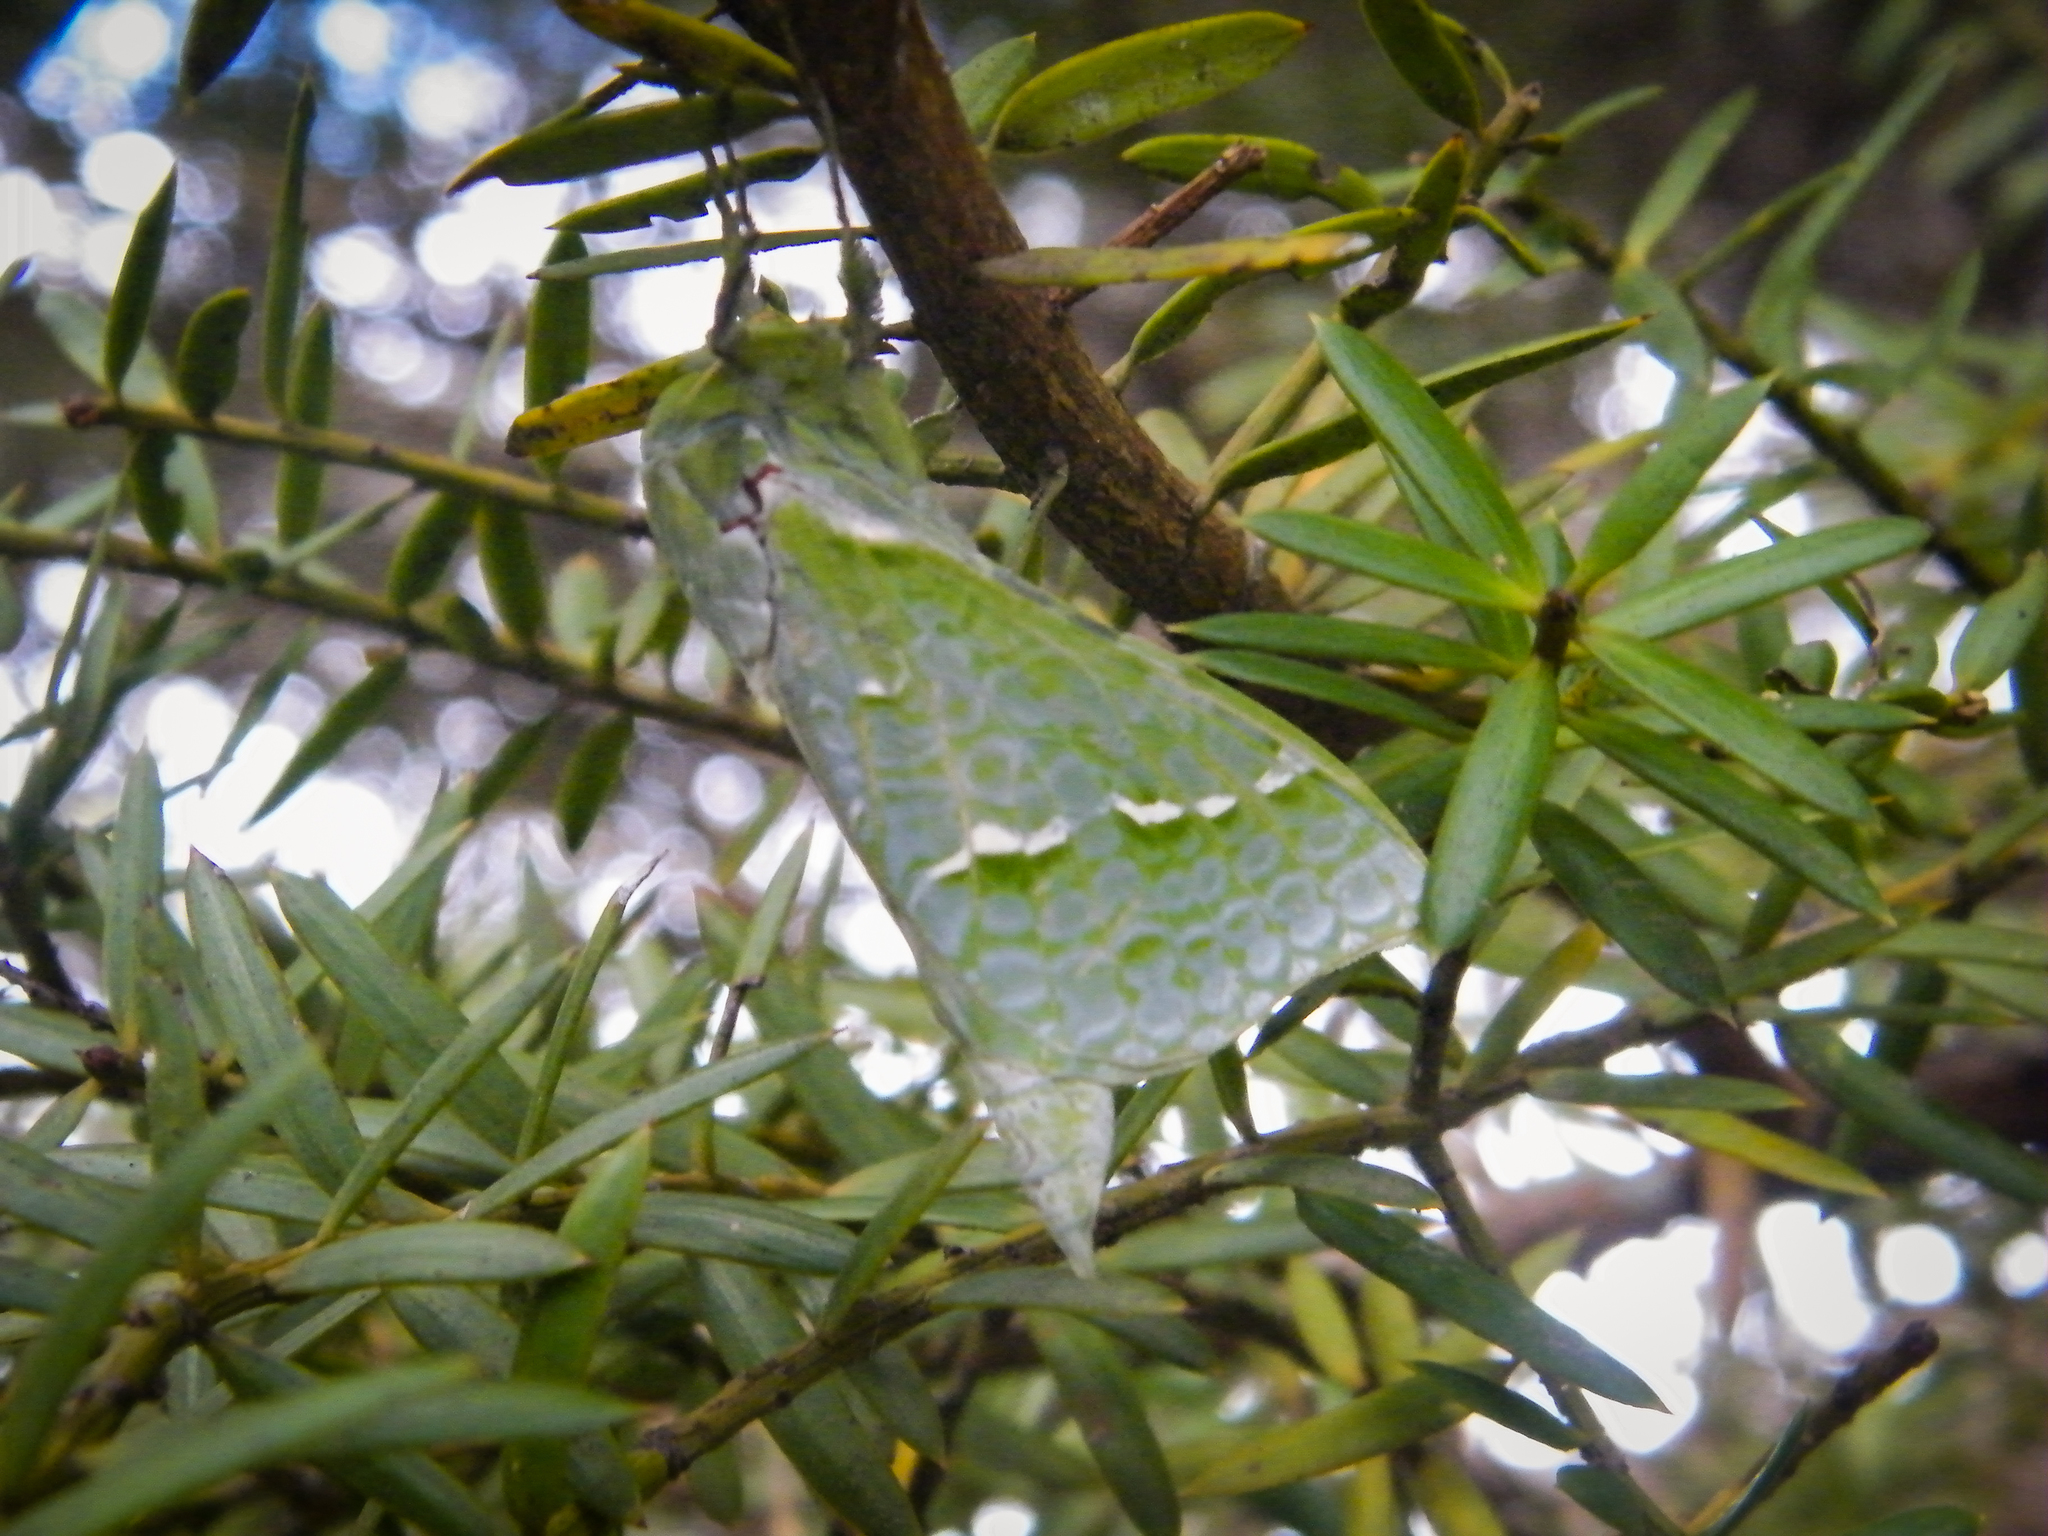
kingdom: Animalia
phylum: Arthropoda
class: Insecta
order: Lepidoptera
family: Hepialidae
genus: Aenetus
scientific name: Aenetus virescens
